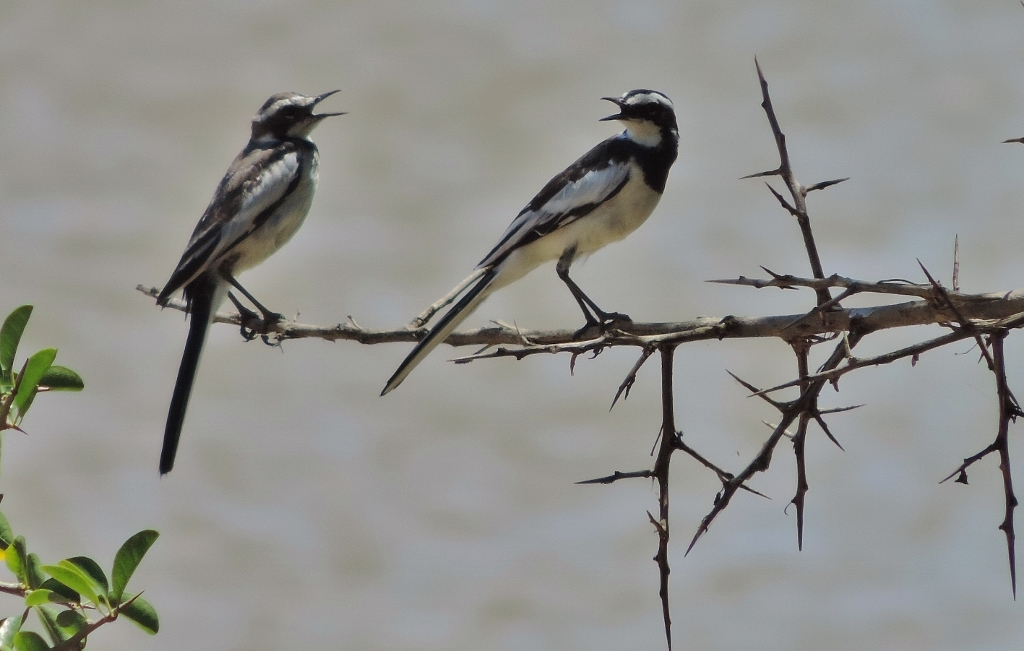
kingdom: Animalia
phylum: Chordata
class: Aves
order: Passeriformes
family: Motacillidae
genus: Motacilla
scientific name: Motacilla aguimp
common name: African pied wagtail
